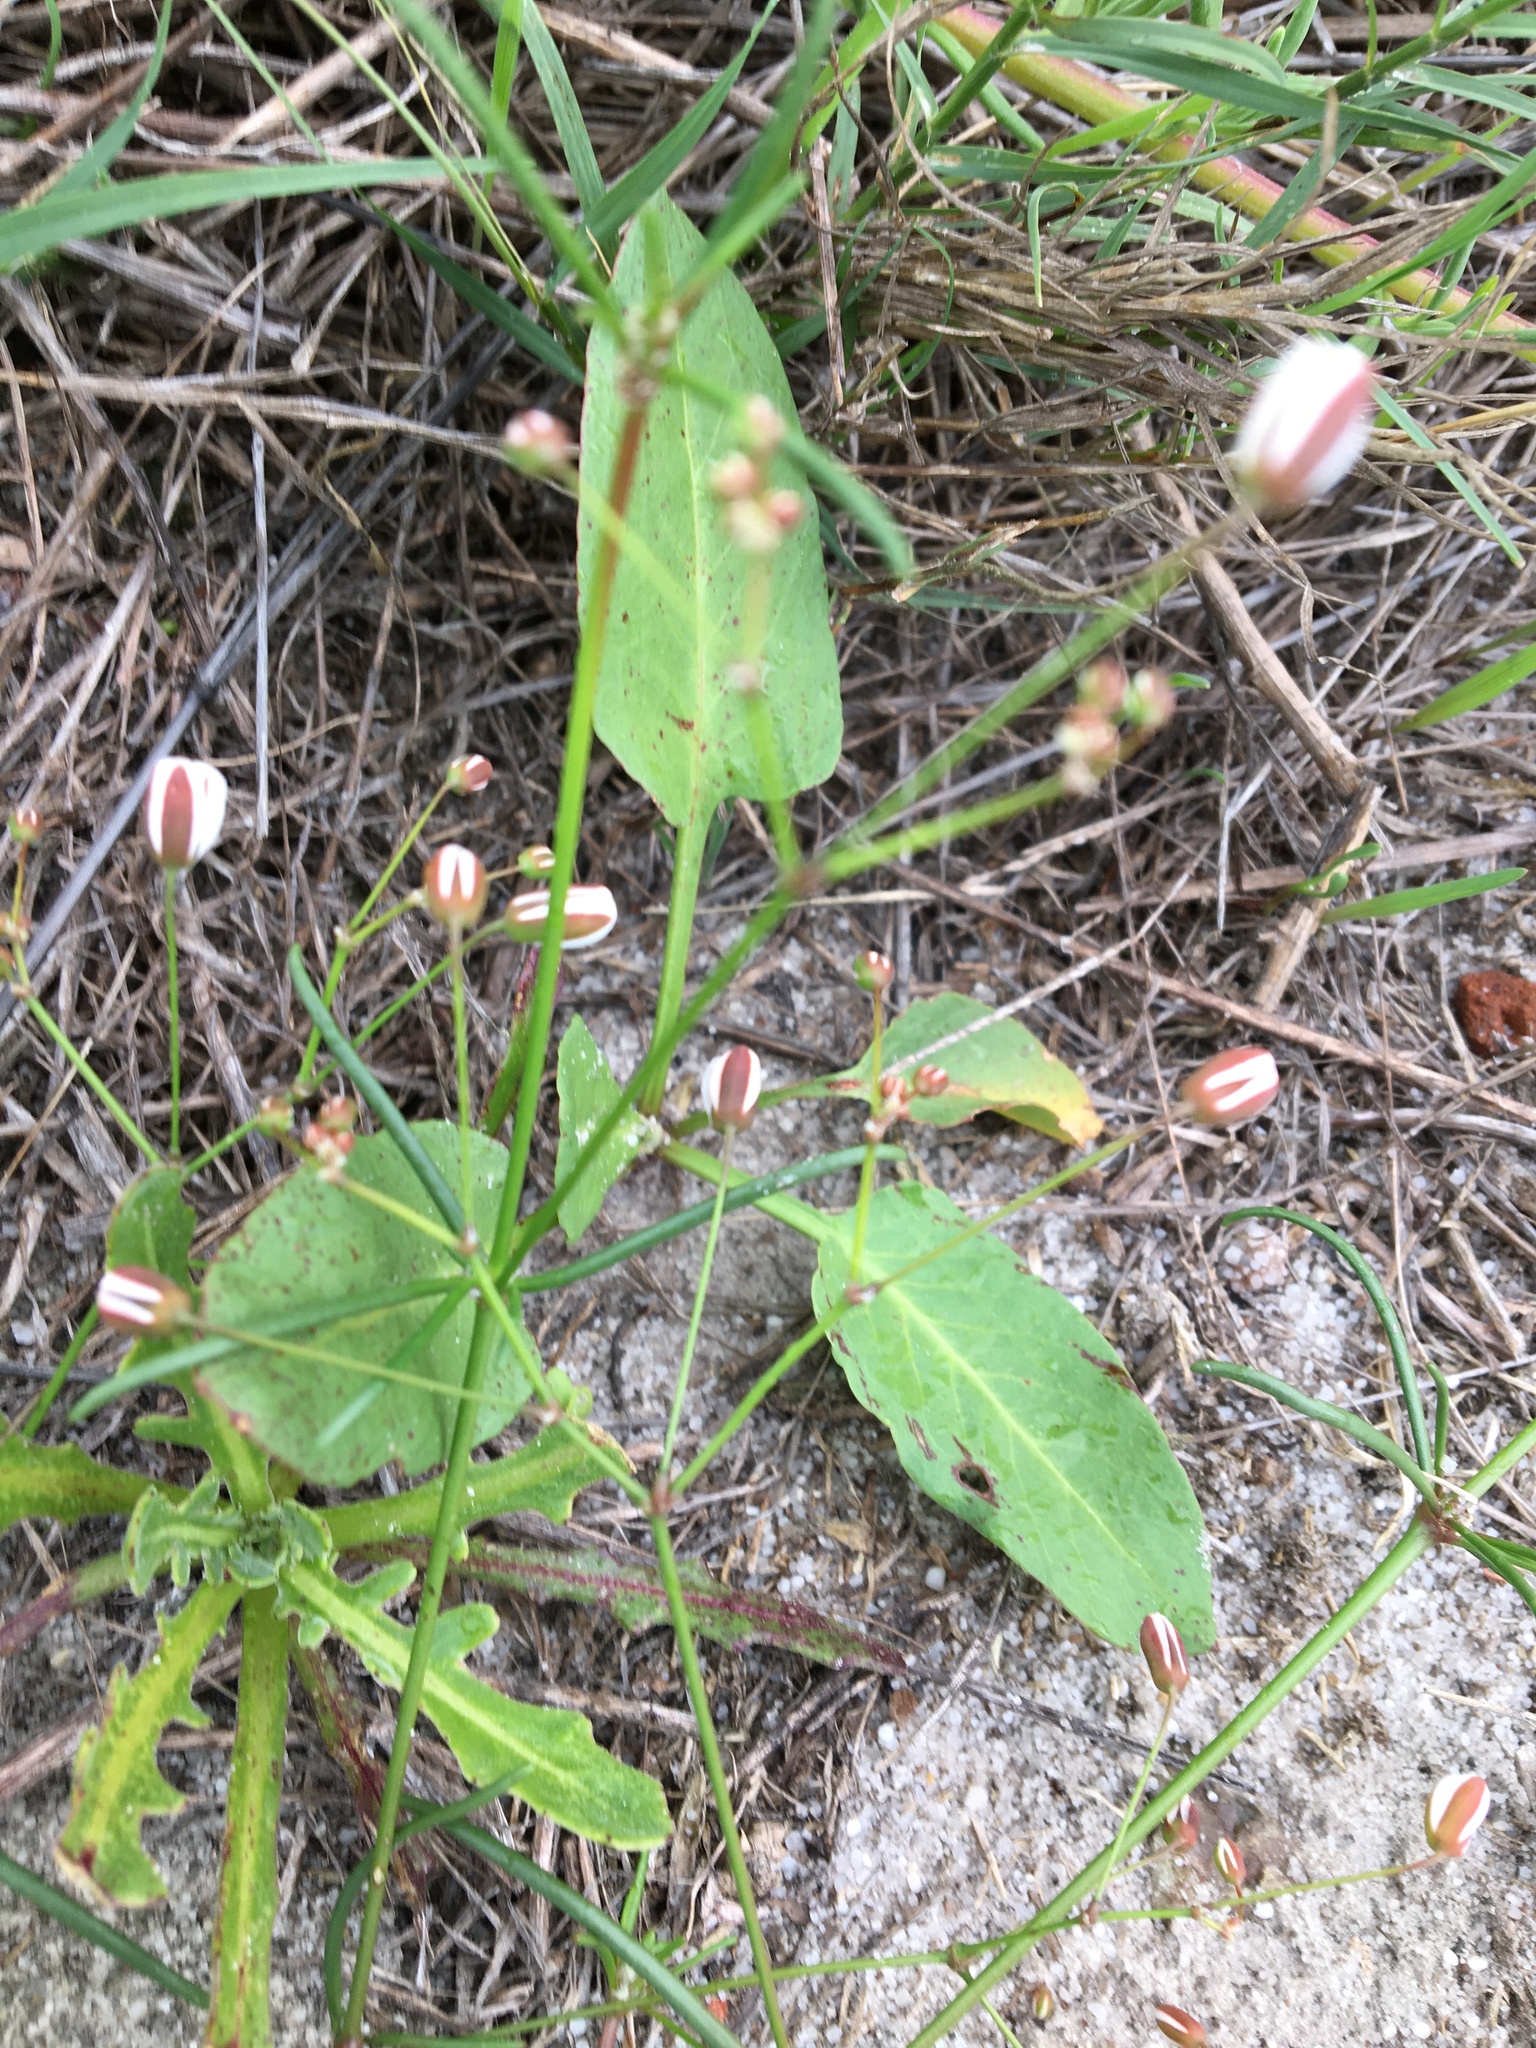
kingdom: Plantae
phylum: Tracheophyta
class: Magnoliopsida
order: Caryophyllales
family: Molluginaceae
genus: Pharnaceum
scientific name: Pharnaceum
